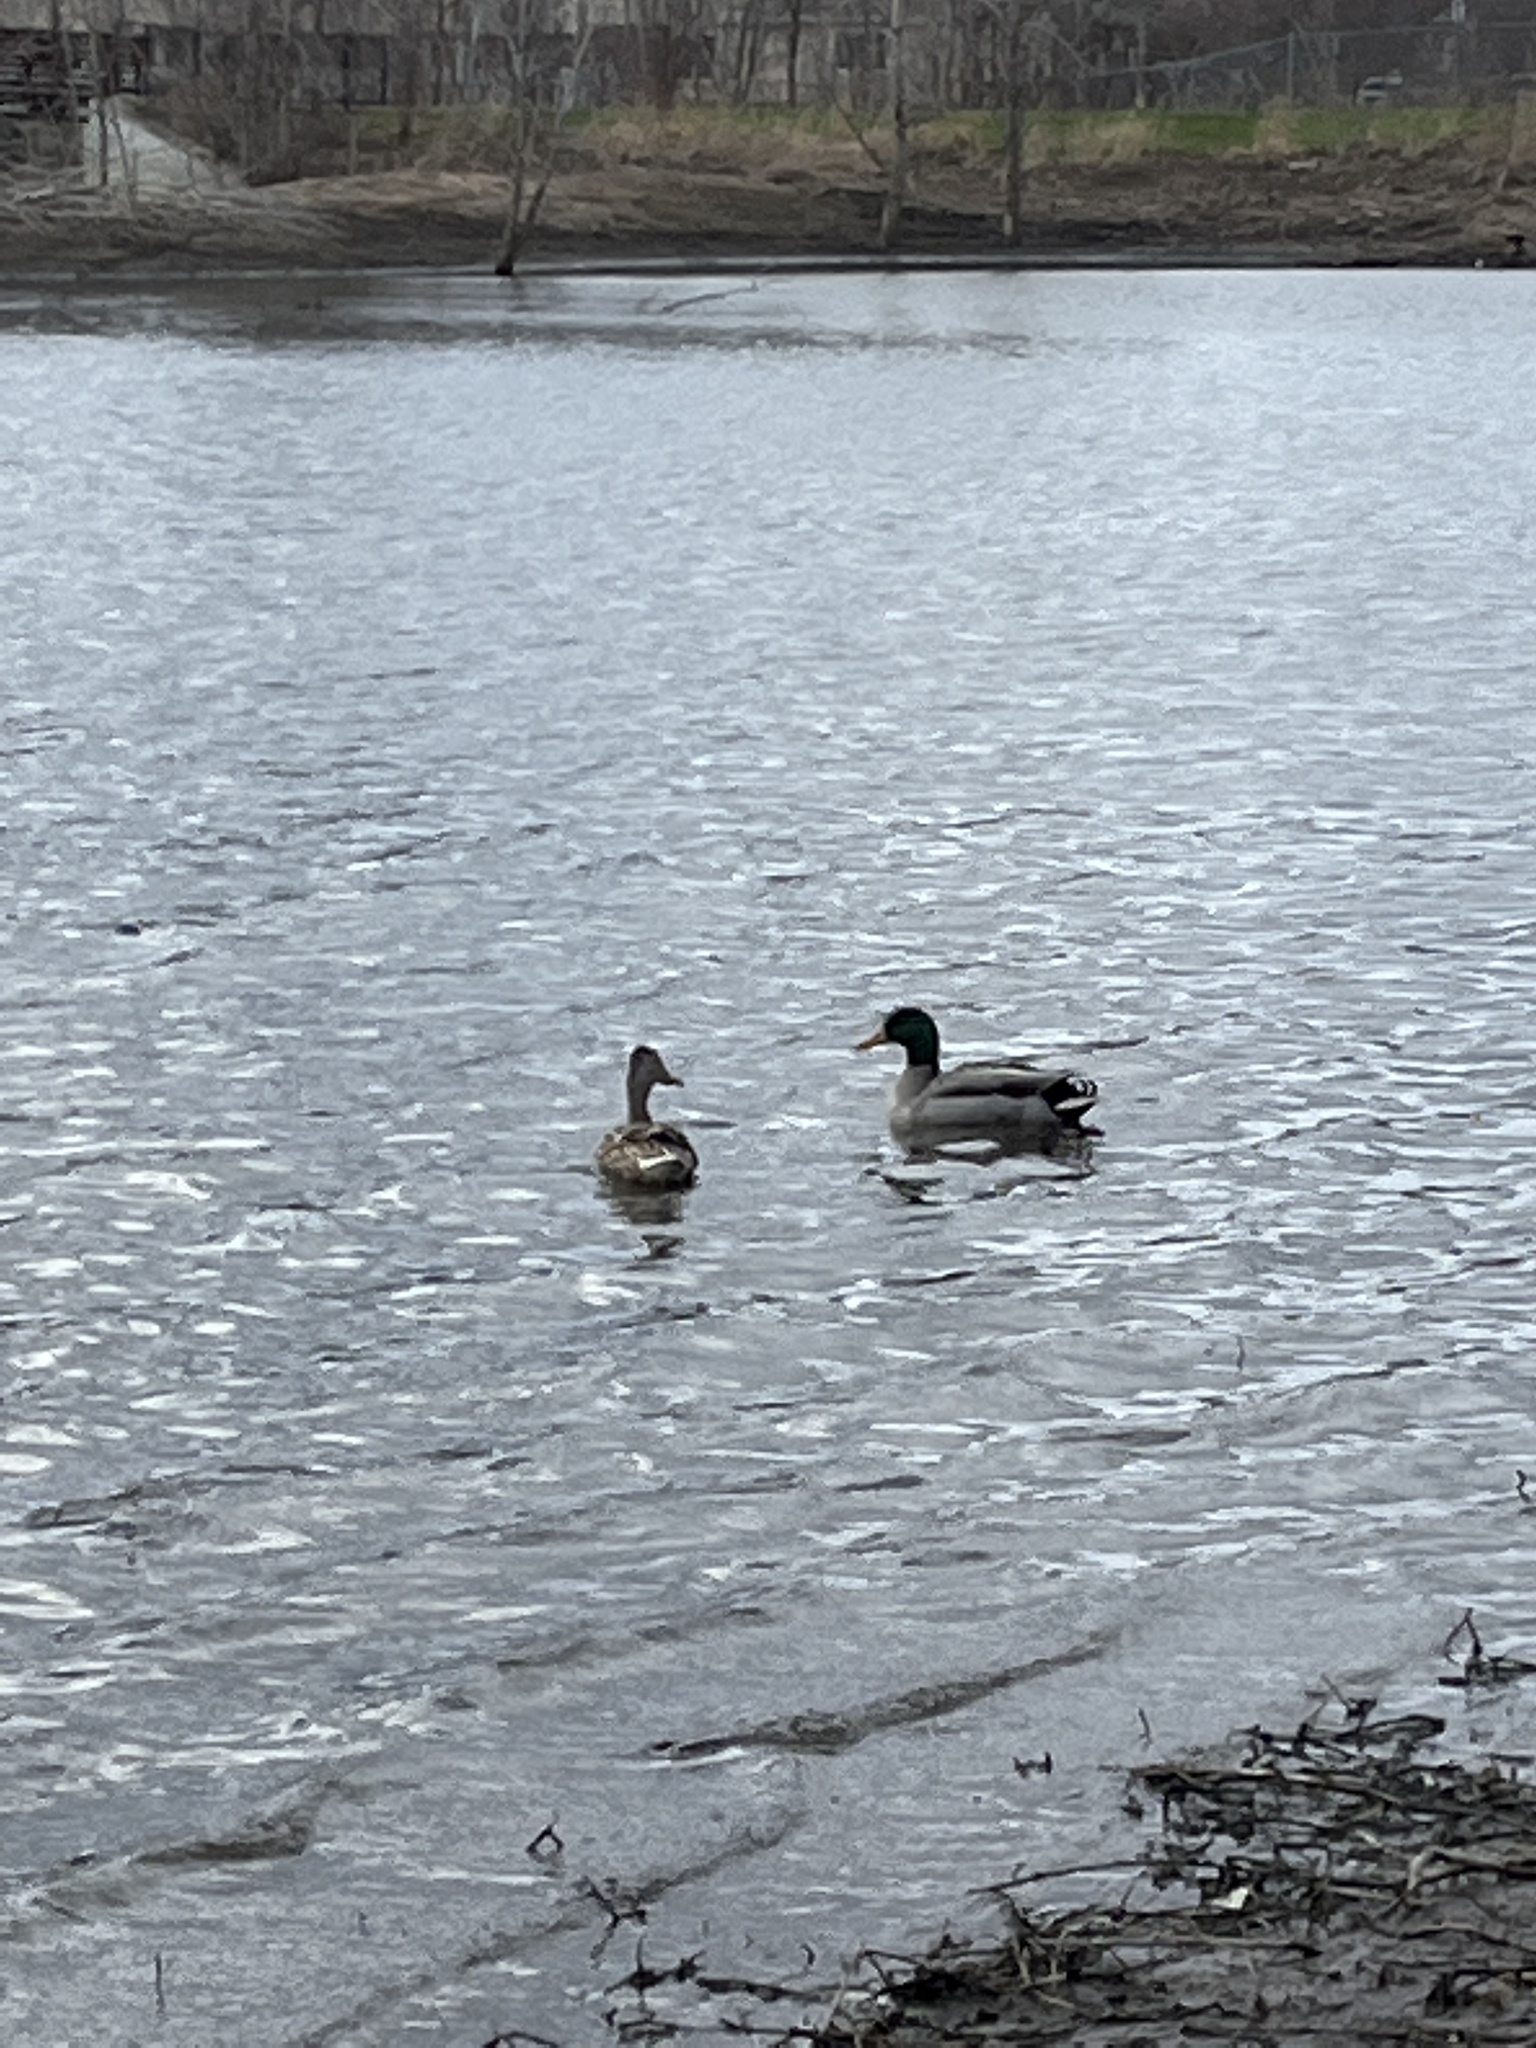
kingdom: Animalia
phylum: Chordata
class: Aves
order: Anseriformes
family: Anatidae
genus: Anas
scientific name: Anas platyrhynchos
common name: Mallard
